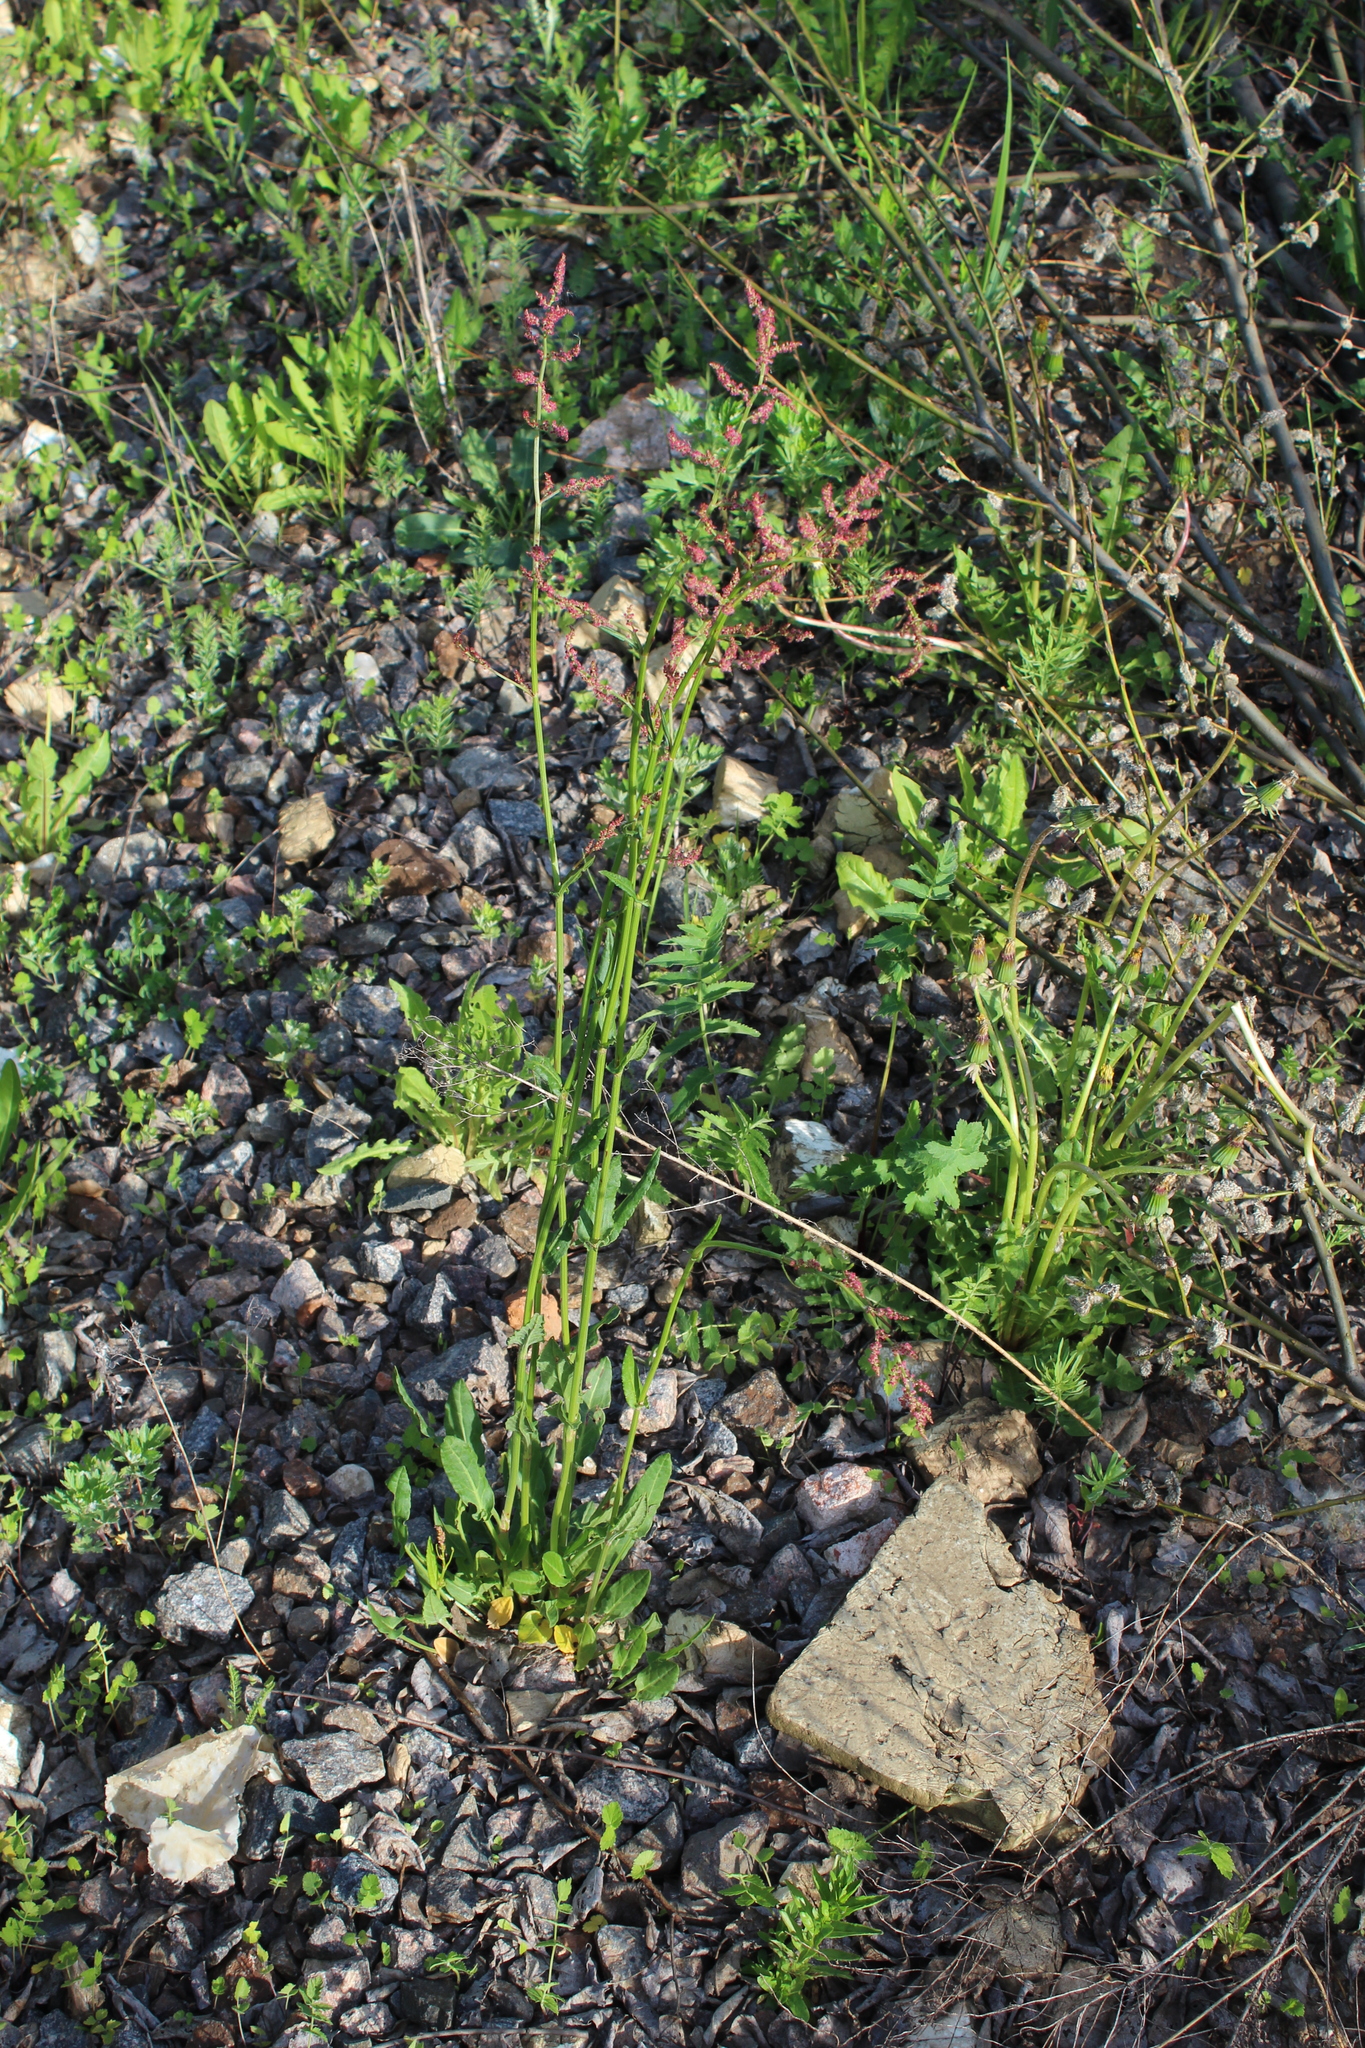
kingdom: Plantae
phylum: Tracheophyta
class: Magnoliopsida
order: Caryophyllales
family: Polygonaceae
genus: Rumex
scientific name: Rumex thyrsiflorus
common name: Garden sorrel
